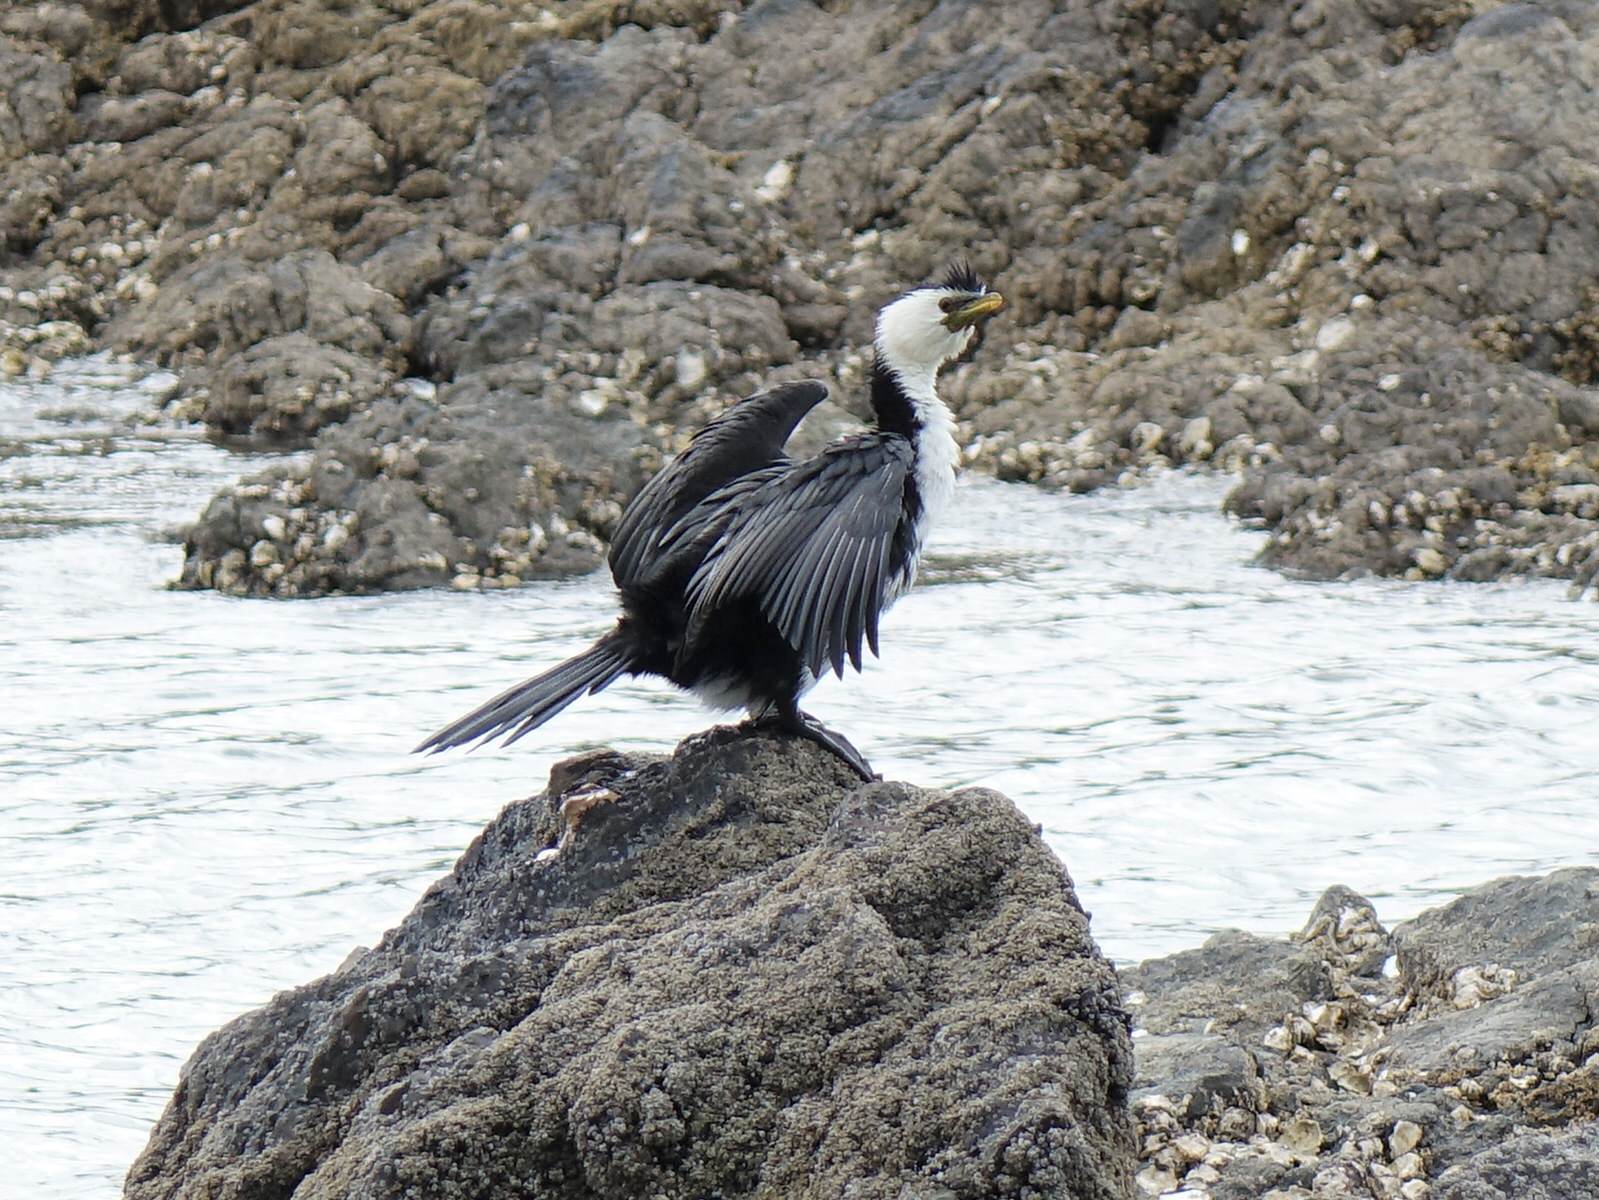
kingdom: Animalia
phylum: Chordata
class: Aves
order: Suliformes
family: Phalacrocoracidae
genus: Microcarbo
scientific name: Microcarbo melanoleucos
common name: Little pied cormorant
